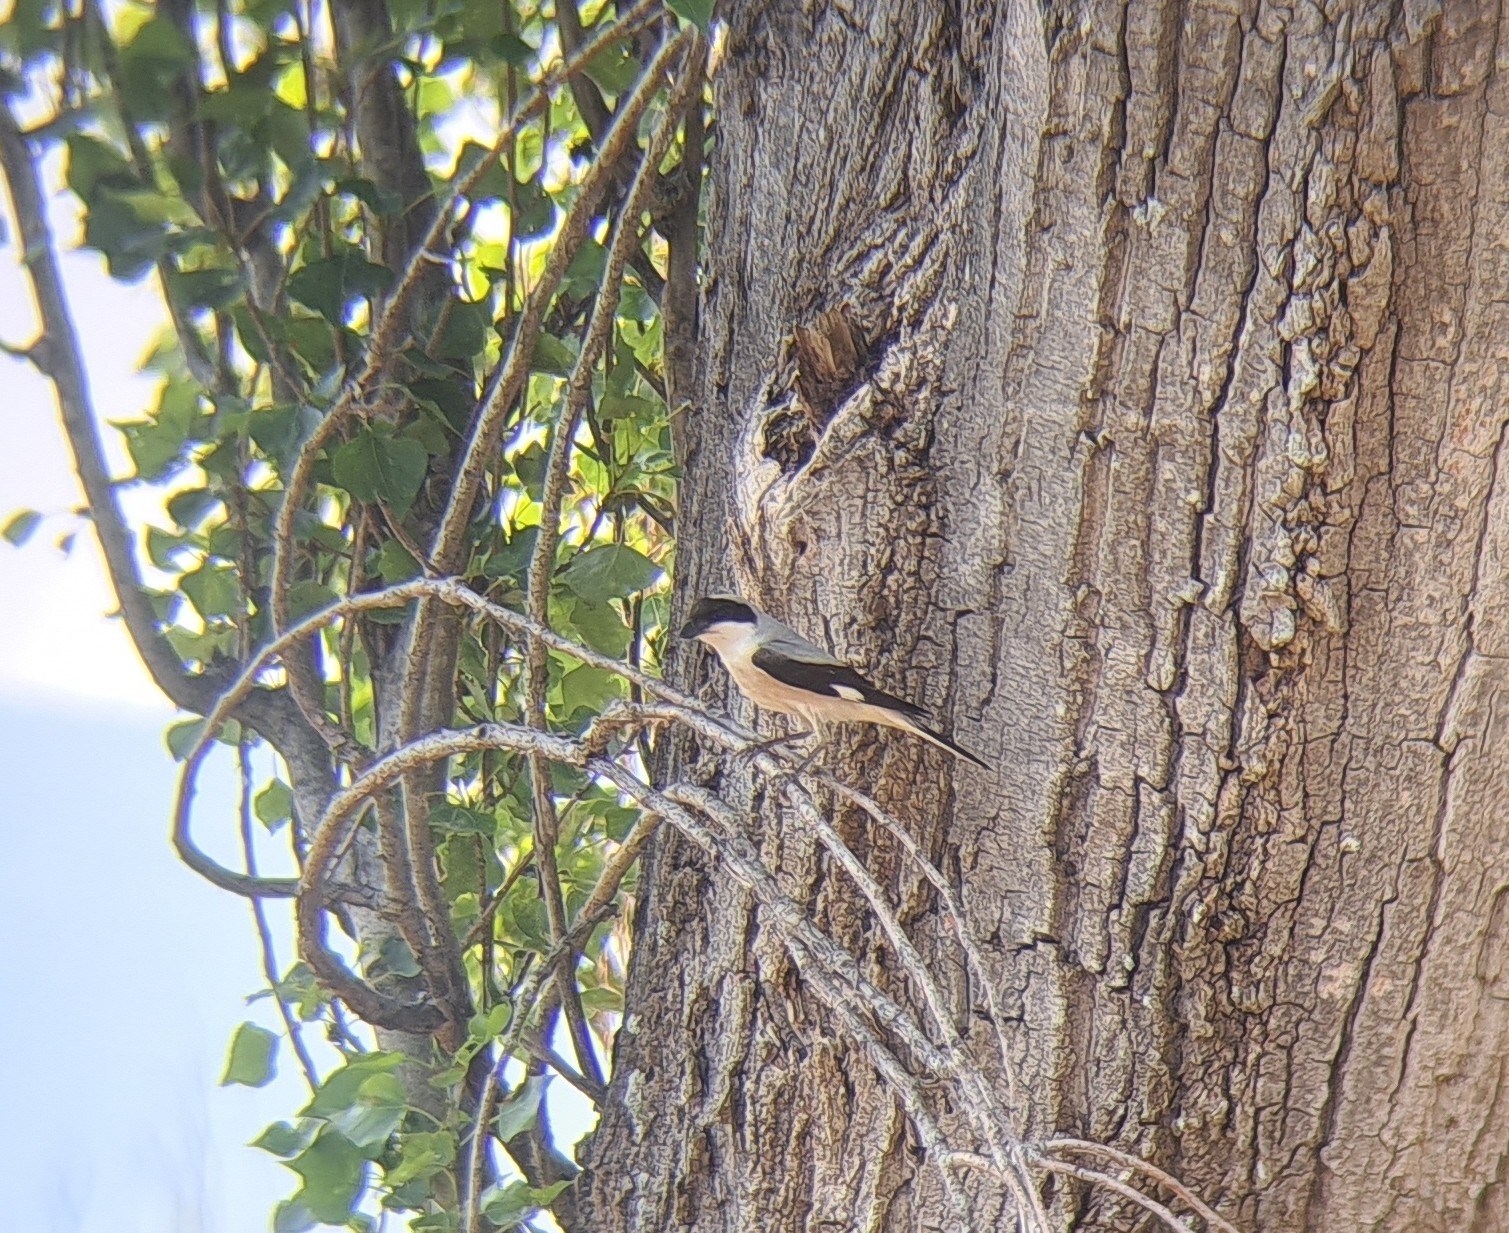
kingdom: Animalia
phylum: Chordata
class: Aves
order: Passeriformes
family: Laniidae
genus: Lanius
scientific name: Lanius minor
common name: Lesser grey shrike
